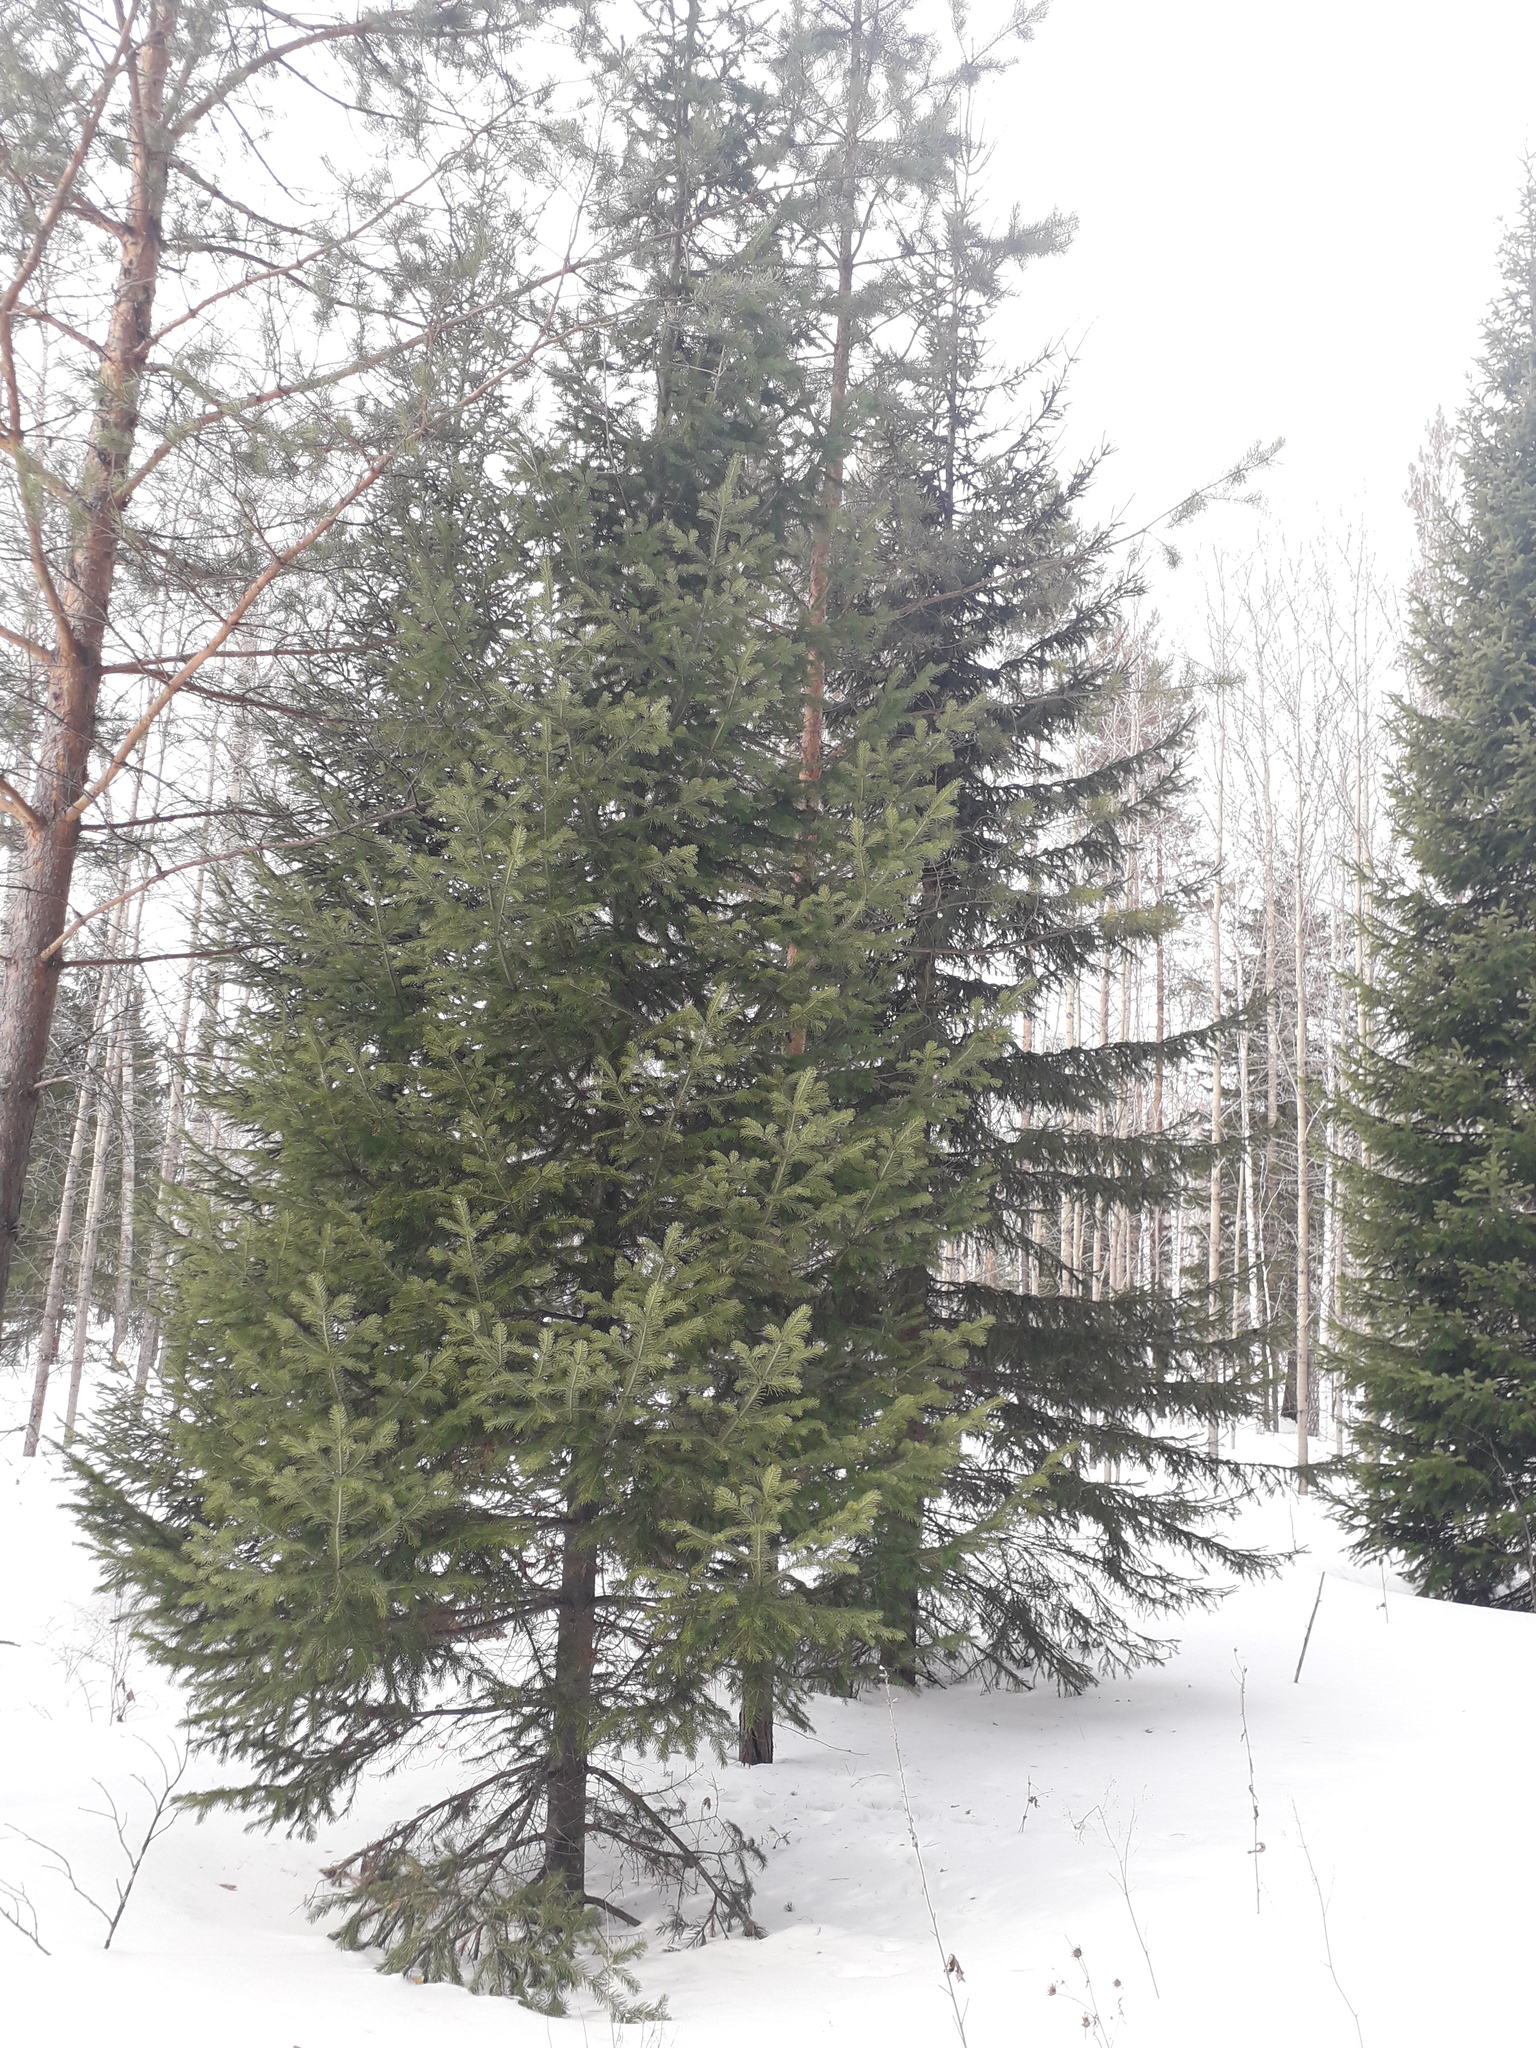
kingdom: Plantae
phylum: Tracheophyta
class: Pinopsida
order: Pinales
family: Pinaceae
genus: Abies
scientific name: Abies sibirica
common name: Siberian fir
